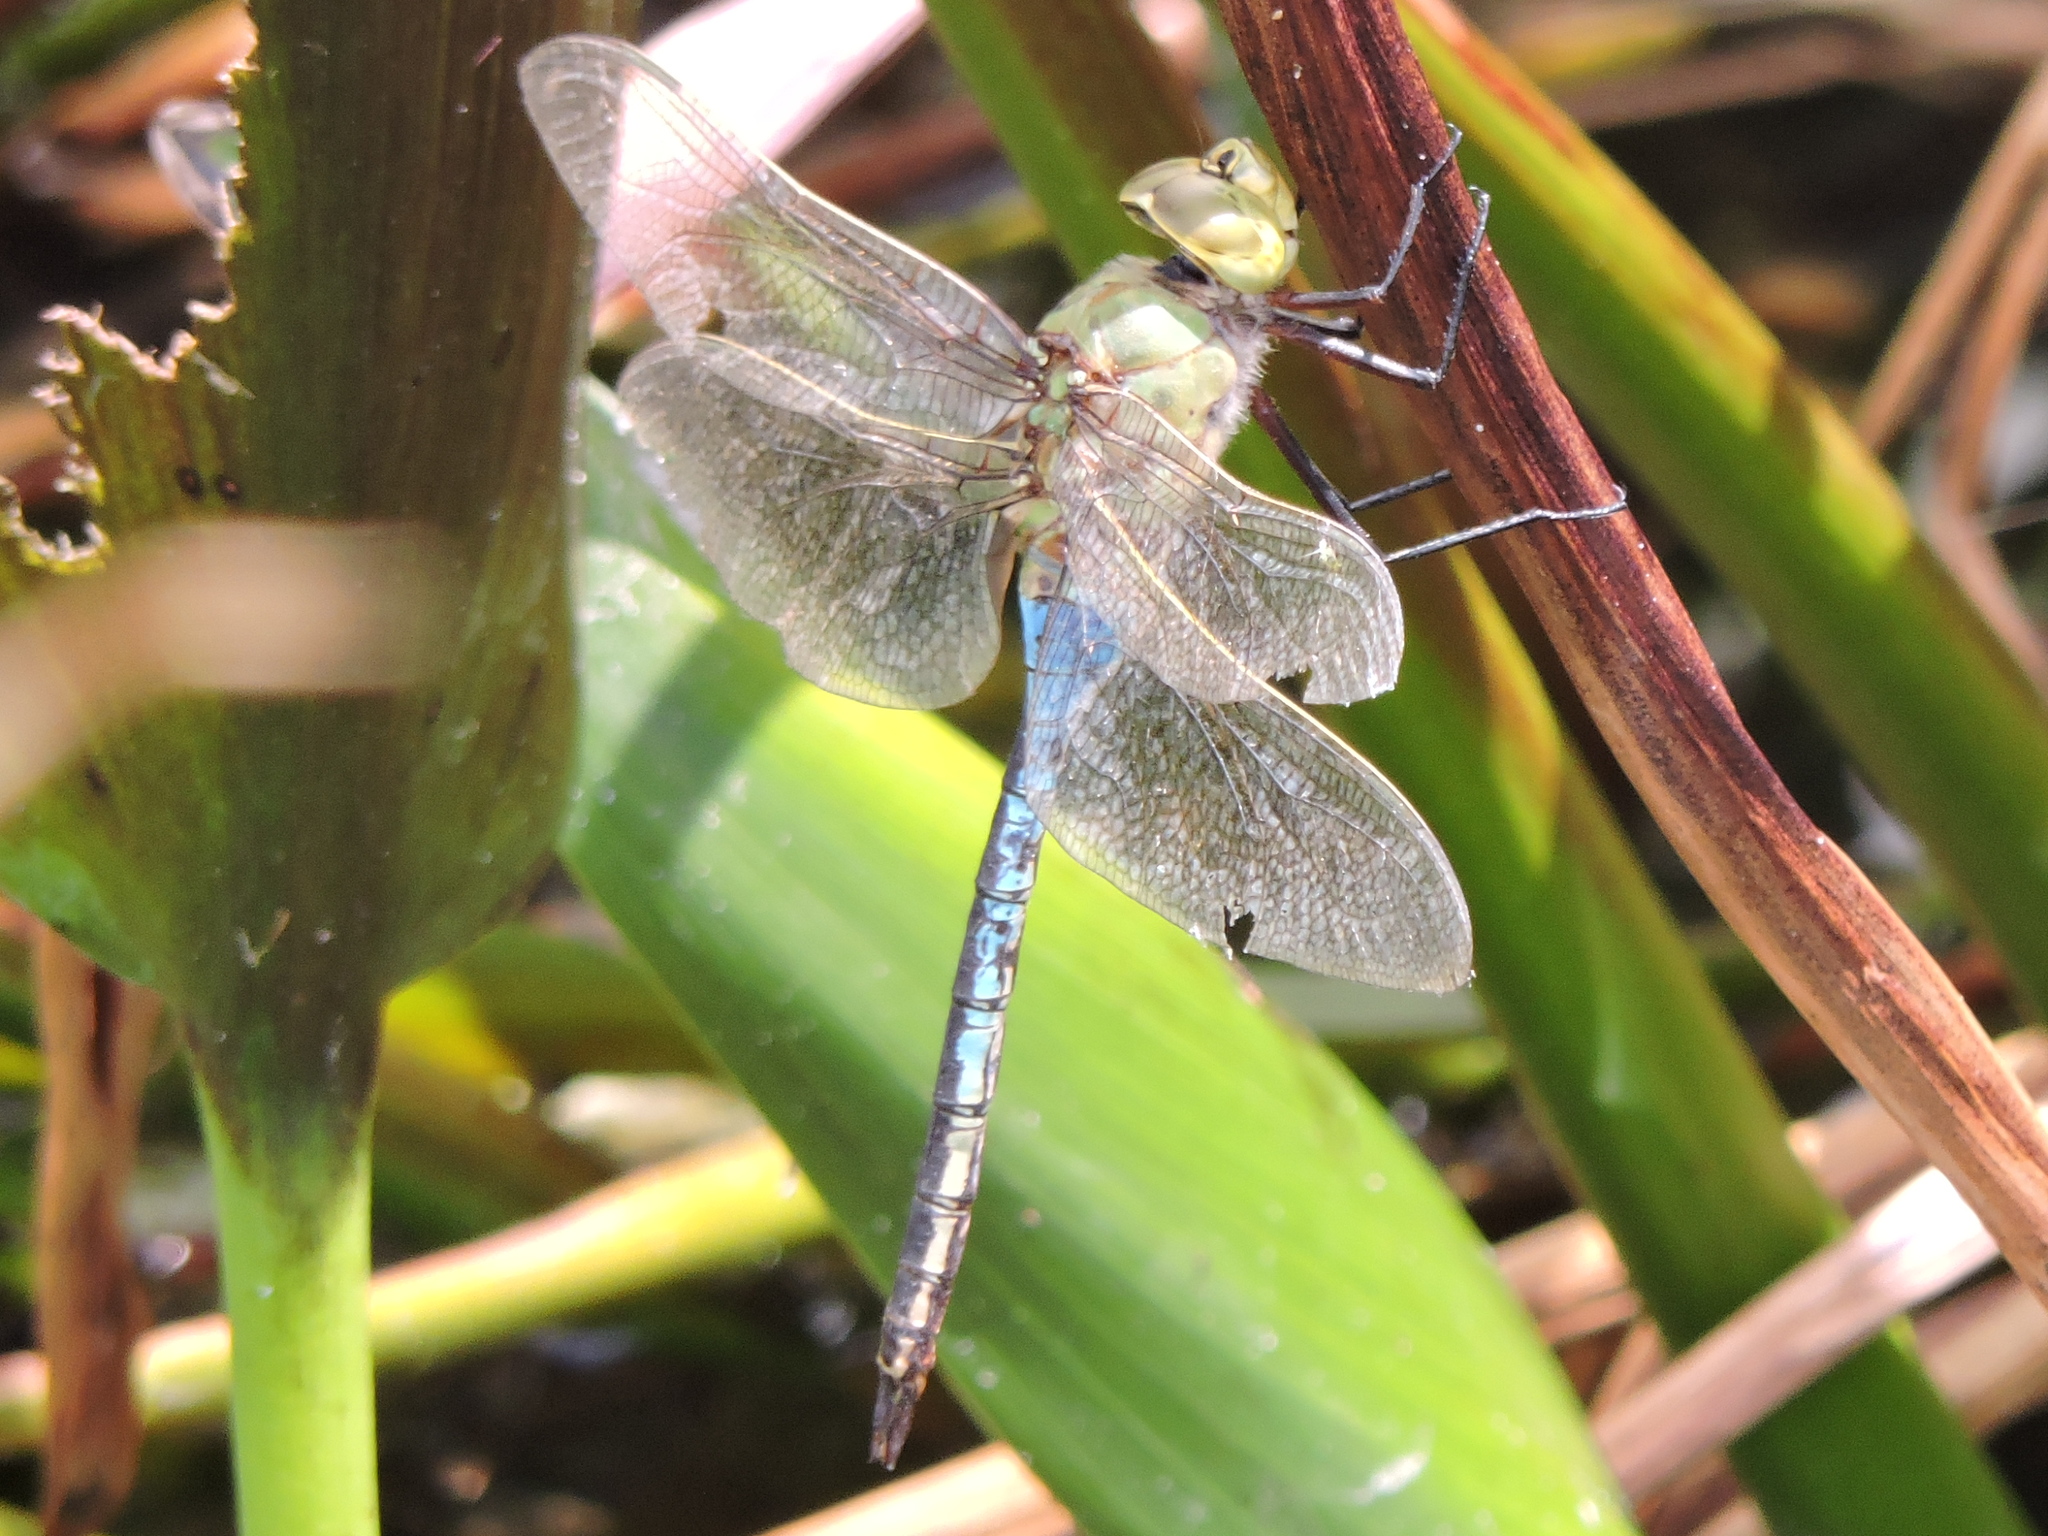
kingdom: Animalia
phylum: Arthropoda
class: Insecta
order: Odonata
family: Aeshnidae
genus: Anax
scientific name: Anax junius
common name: Common green darner
